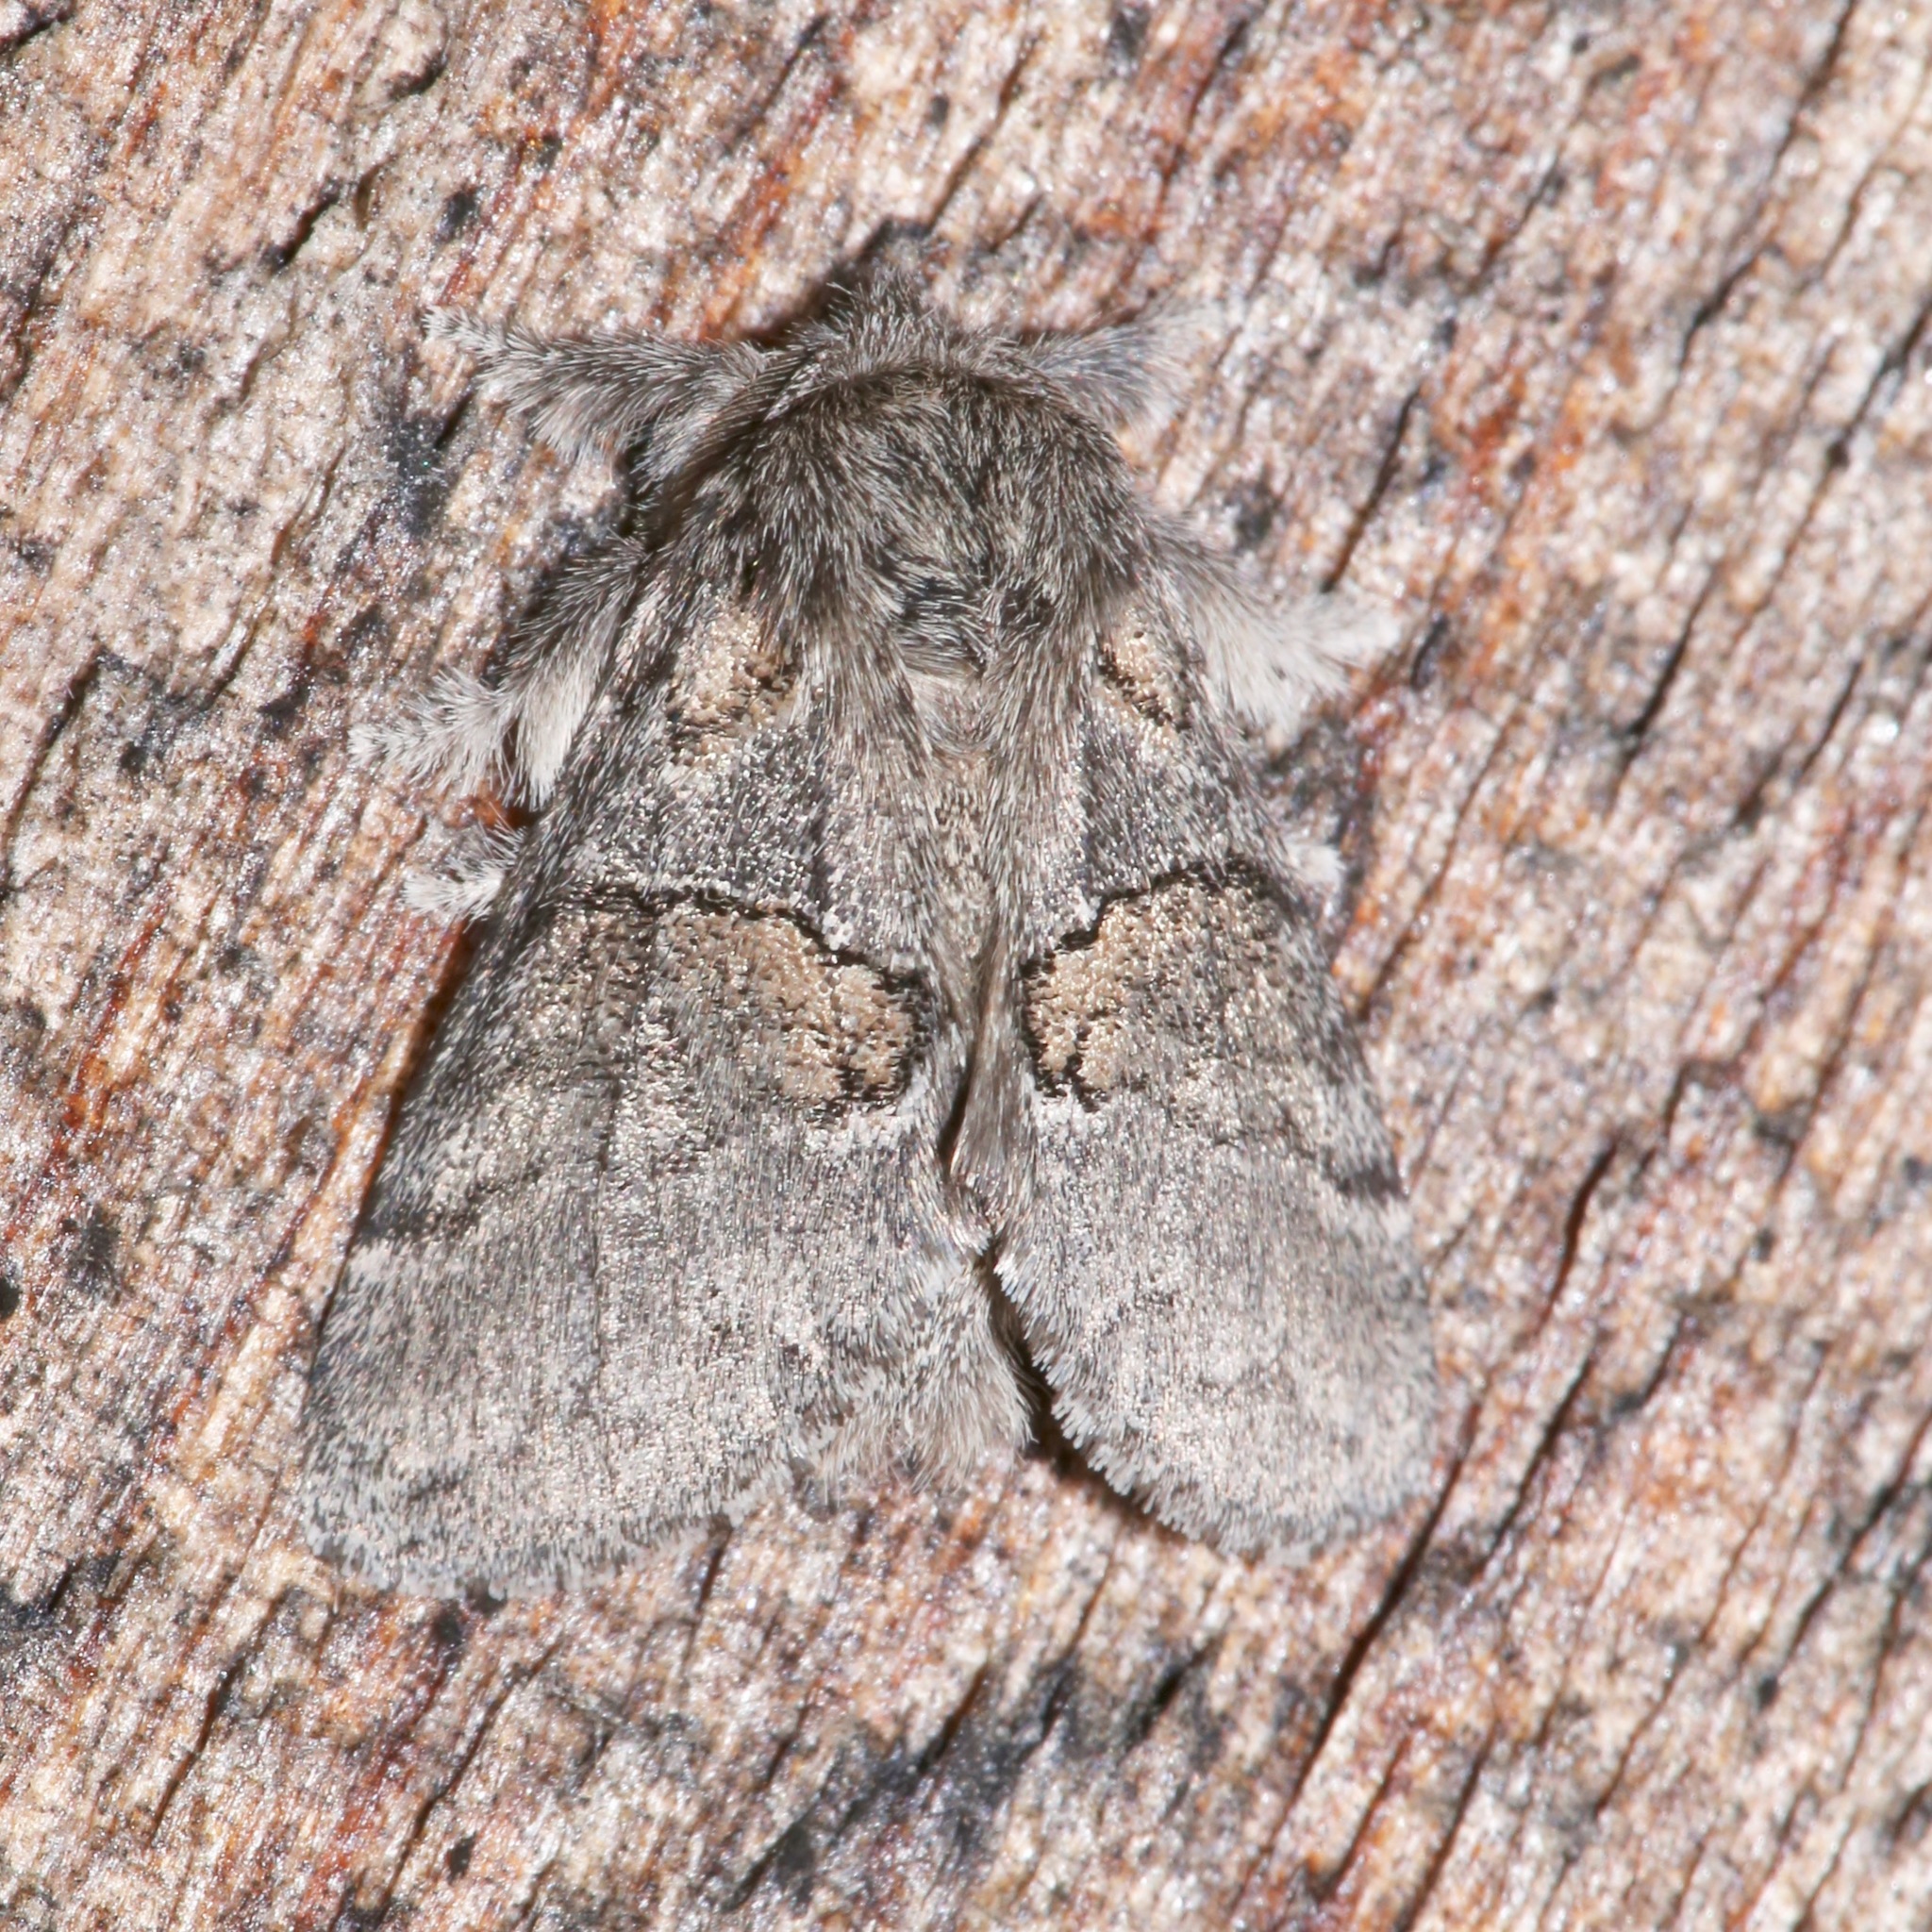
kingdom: Animalia
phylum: Arthropoda
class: Insecta
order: Lepidoptera
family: Notodontidae
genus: Gluphisia
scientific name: Gluphisia septentrionis
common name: Common gluphisia
